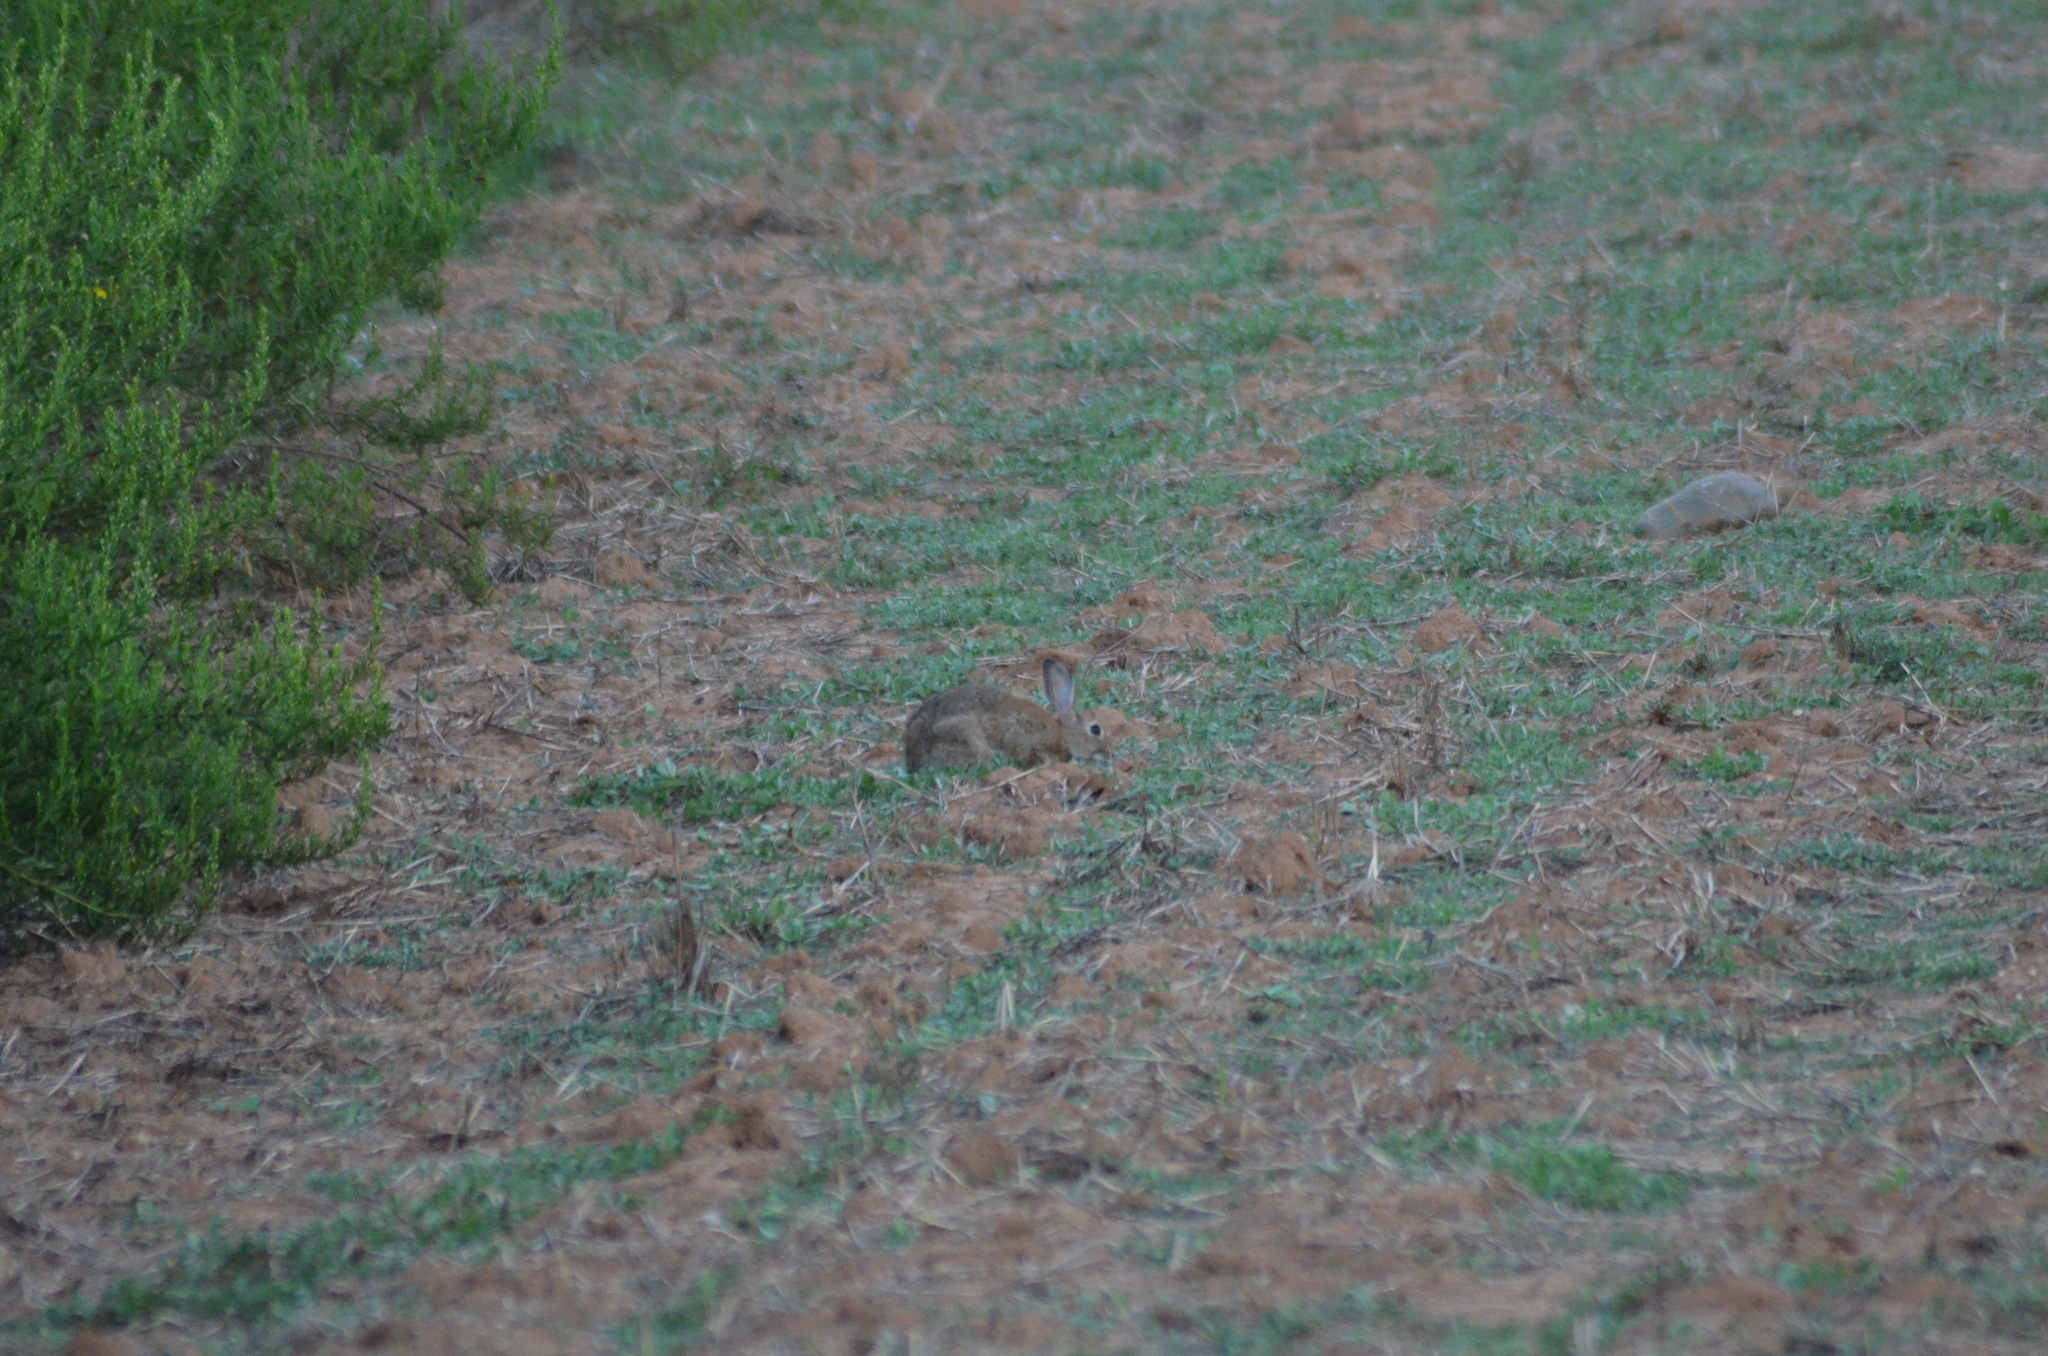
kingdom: Animalia
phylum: Chordata
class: Mammalia
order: Lagomorpha
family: Leporidae
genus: Oryctolagus
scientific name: Oryctolagus cuniculus
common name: European rabbit
